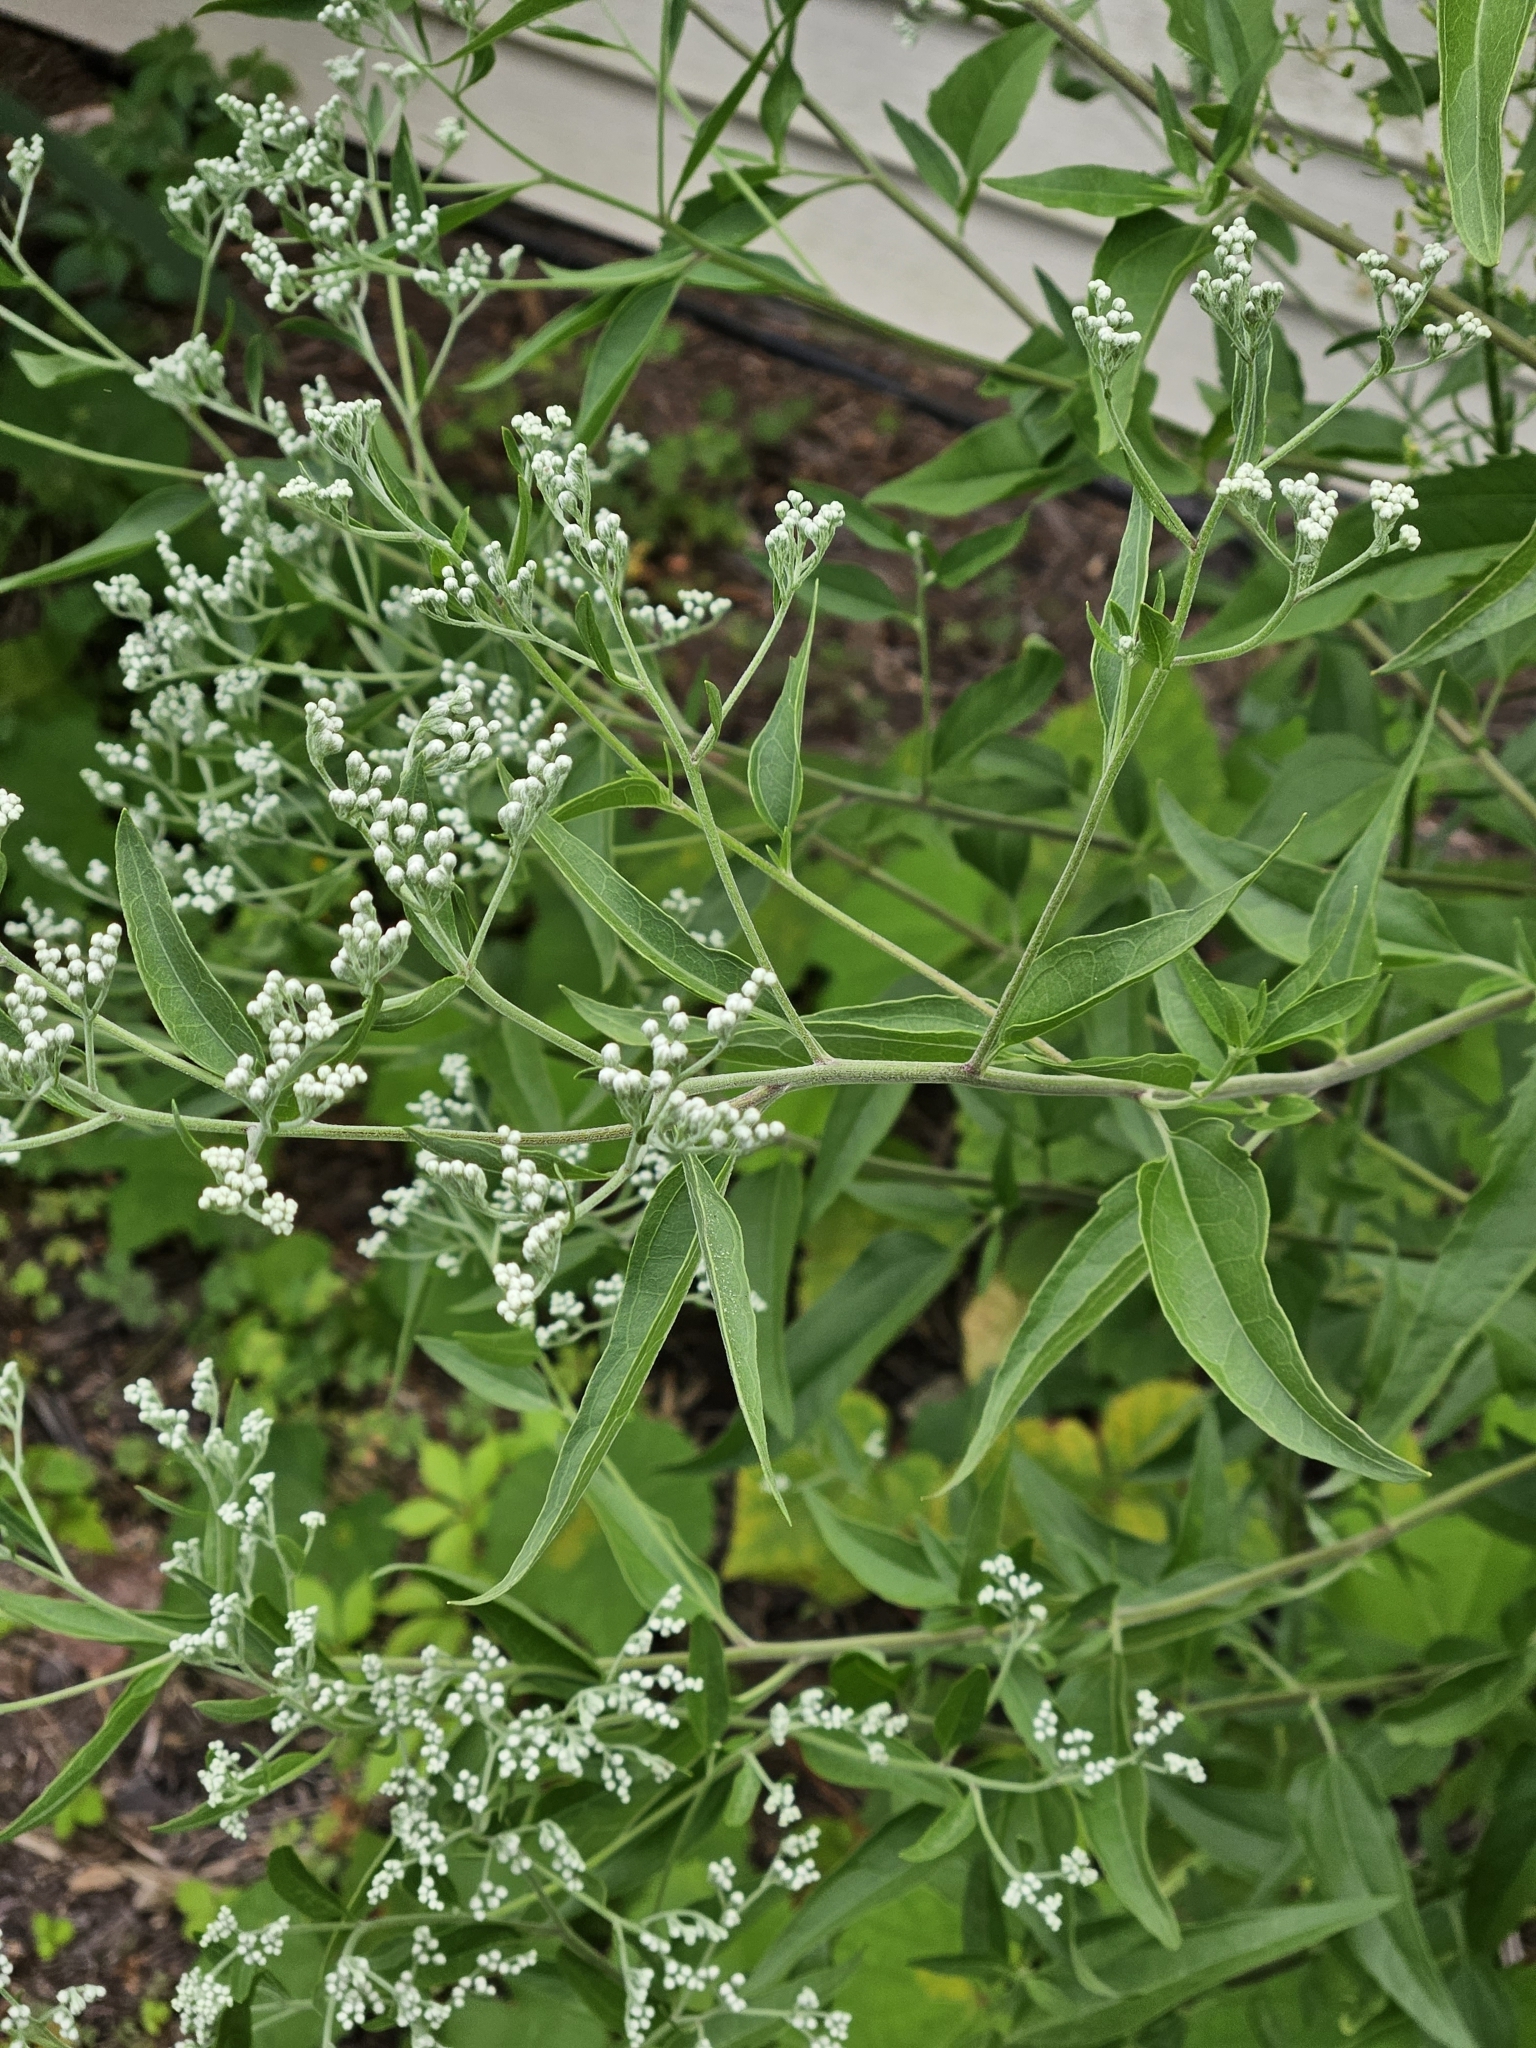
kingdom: Plantae
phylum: Tracheophyta
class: Magnoliopsida
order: Asterales
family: Asteraceae
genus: Eupatorium
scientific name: Eupatorium serotinum
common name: Late boneset
